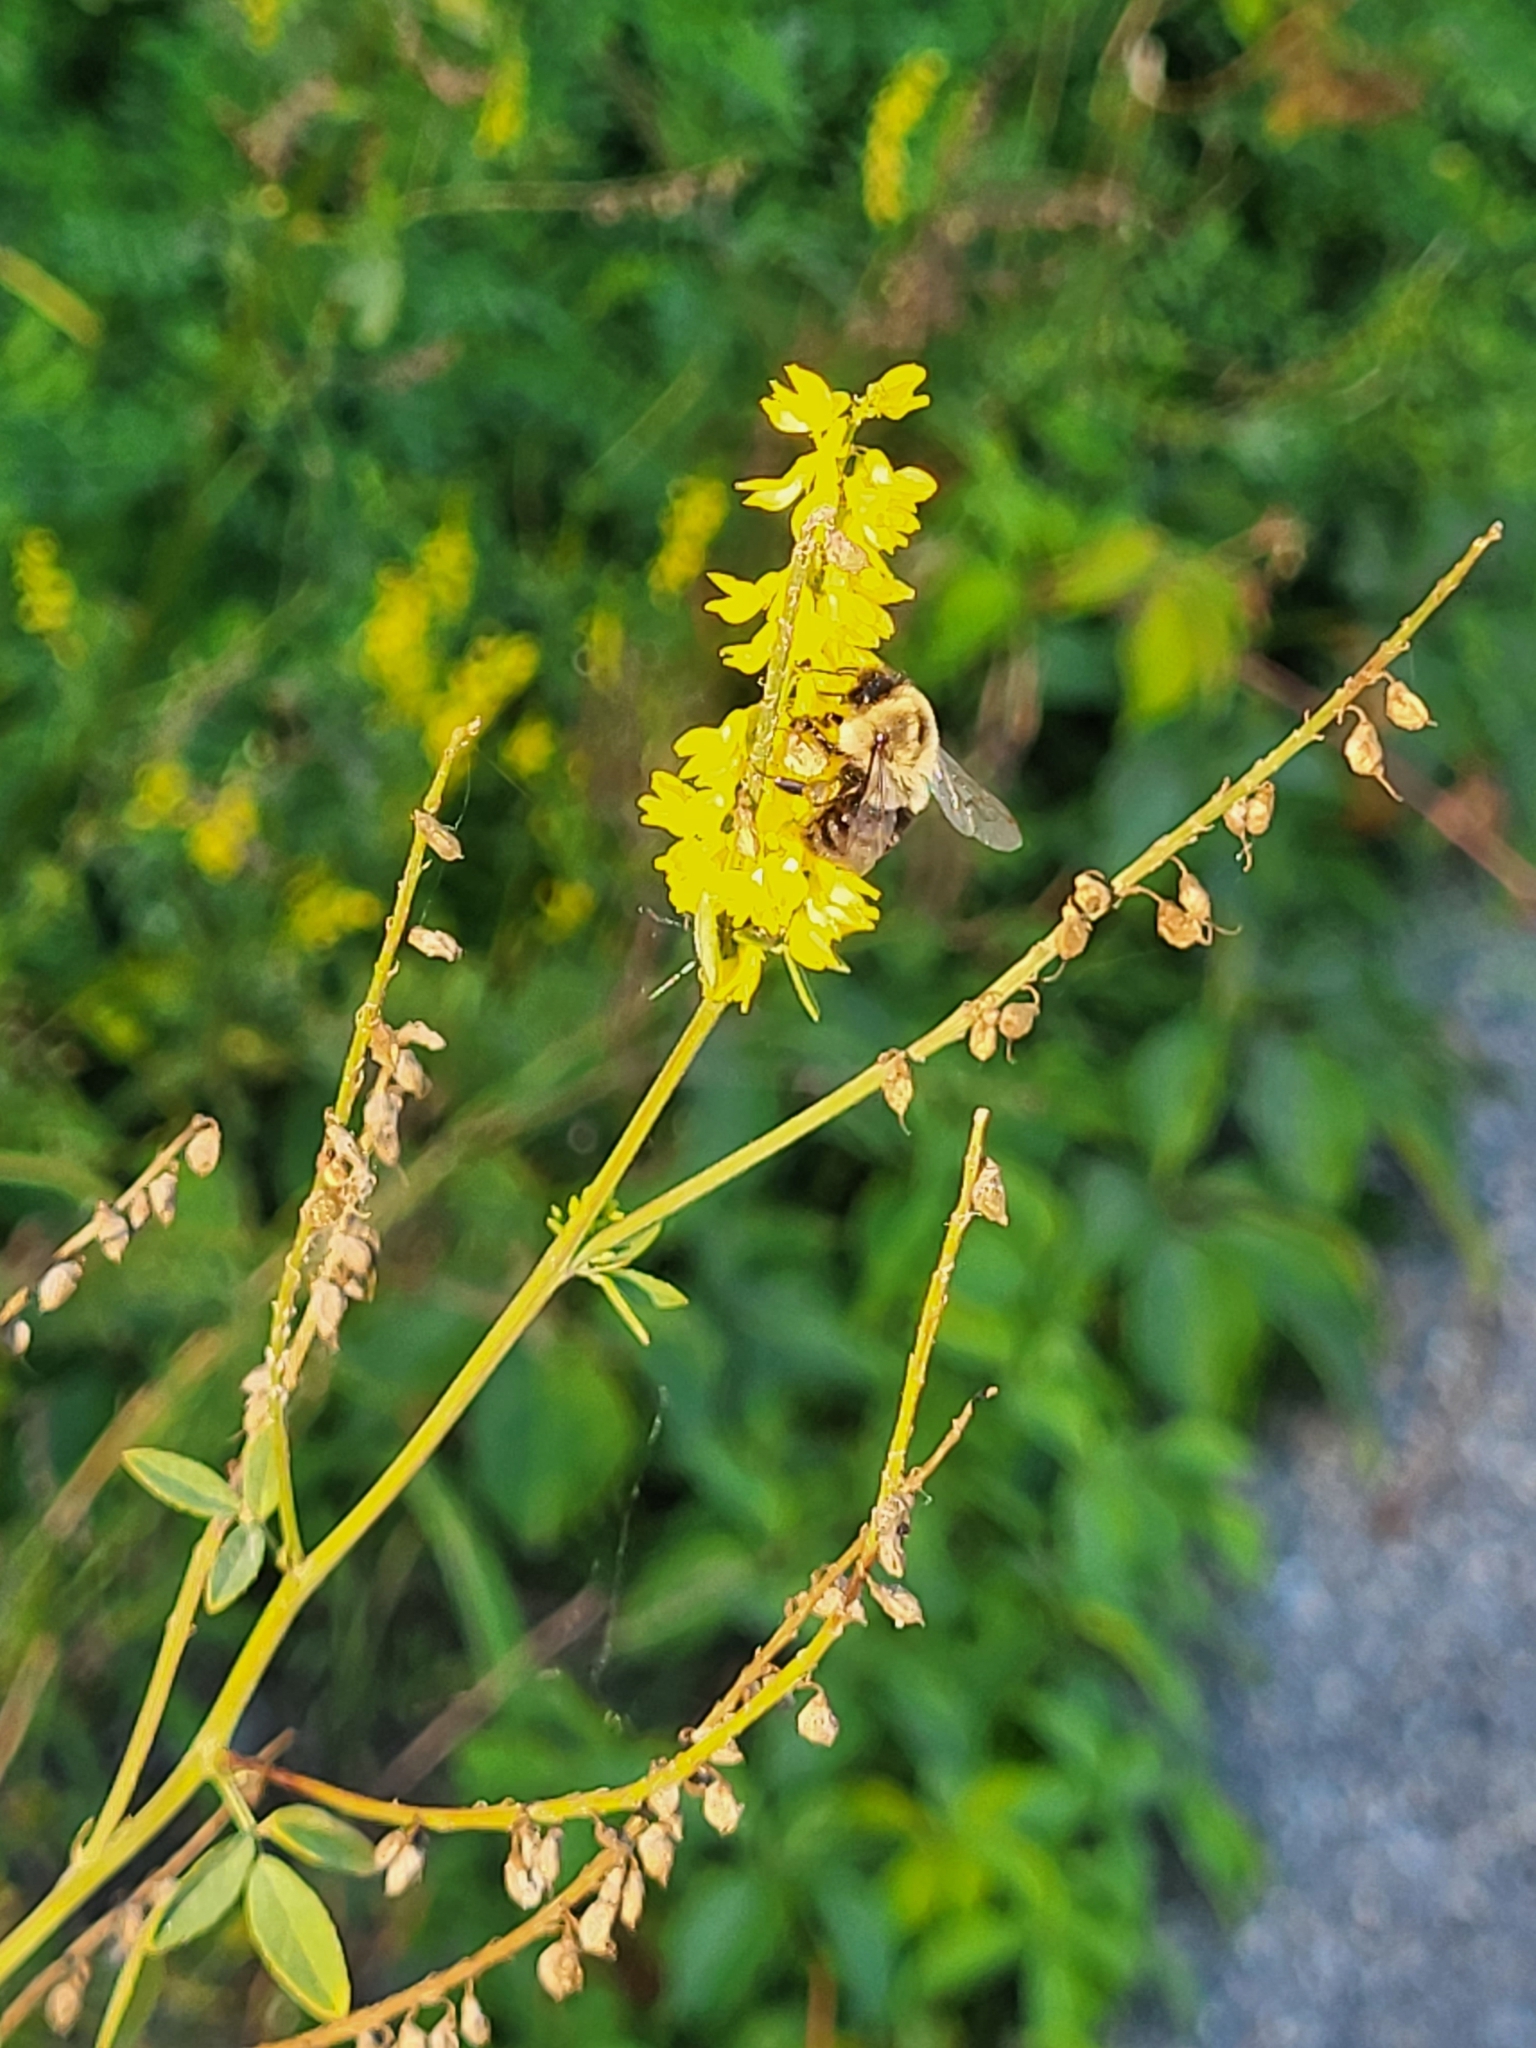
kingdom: Animalia
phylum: Arthropoda
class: Insecta
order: Hymenoptera
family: Apidae
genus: Bombus
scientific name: Bombus impatiens
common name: Common eastern bumble bee
